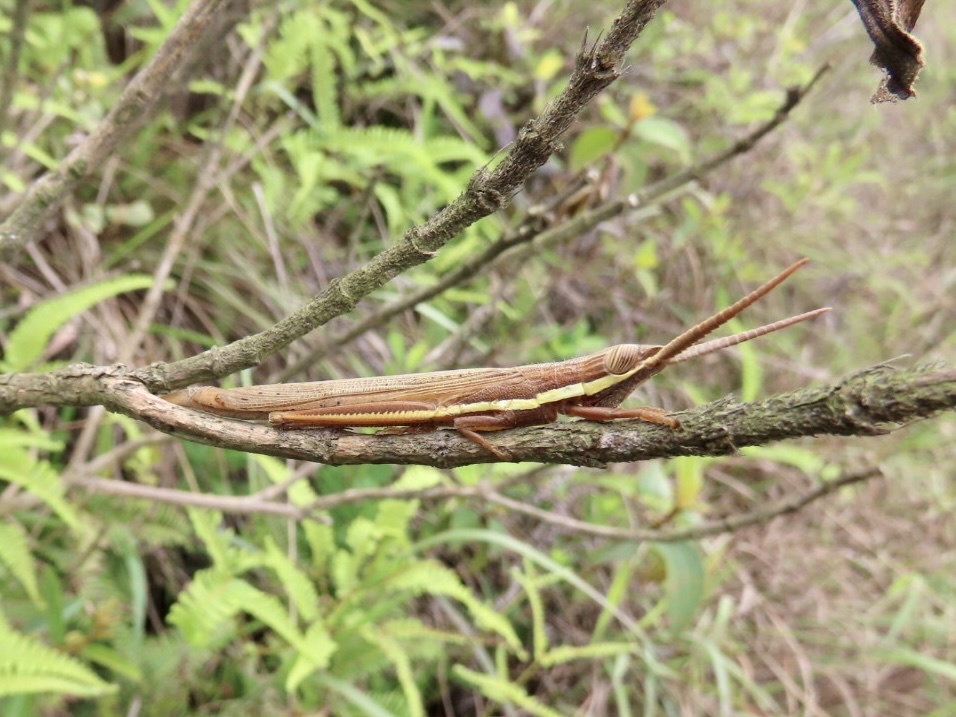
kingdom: Animalia
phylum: Arthropoda
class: Insecta
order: Orthoptera
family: Acrididae
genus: Leptacris
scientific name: Leptacris monteiroi
